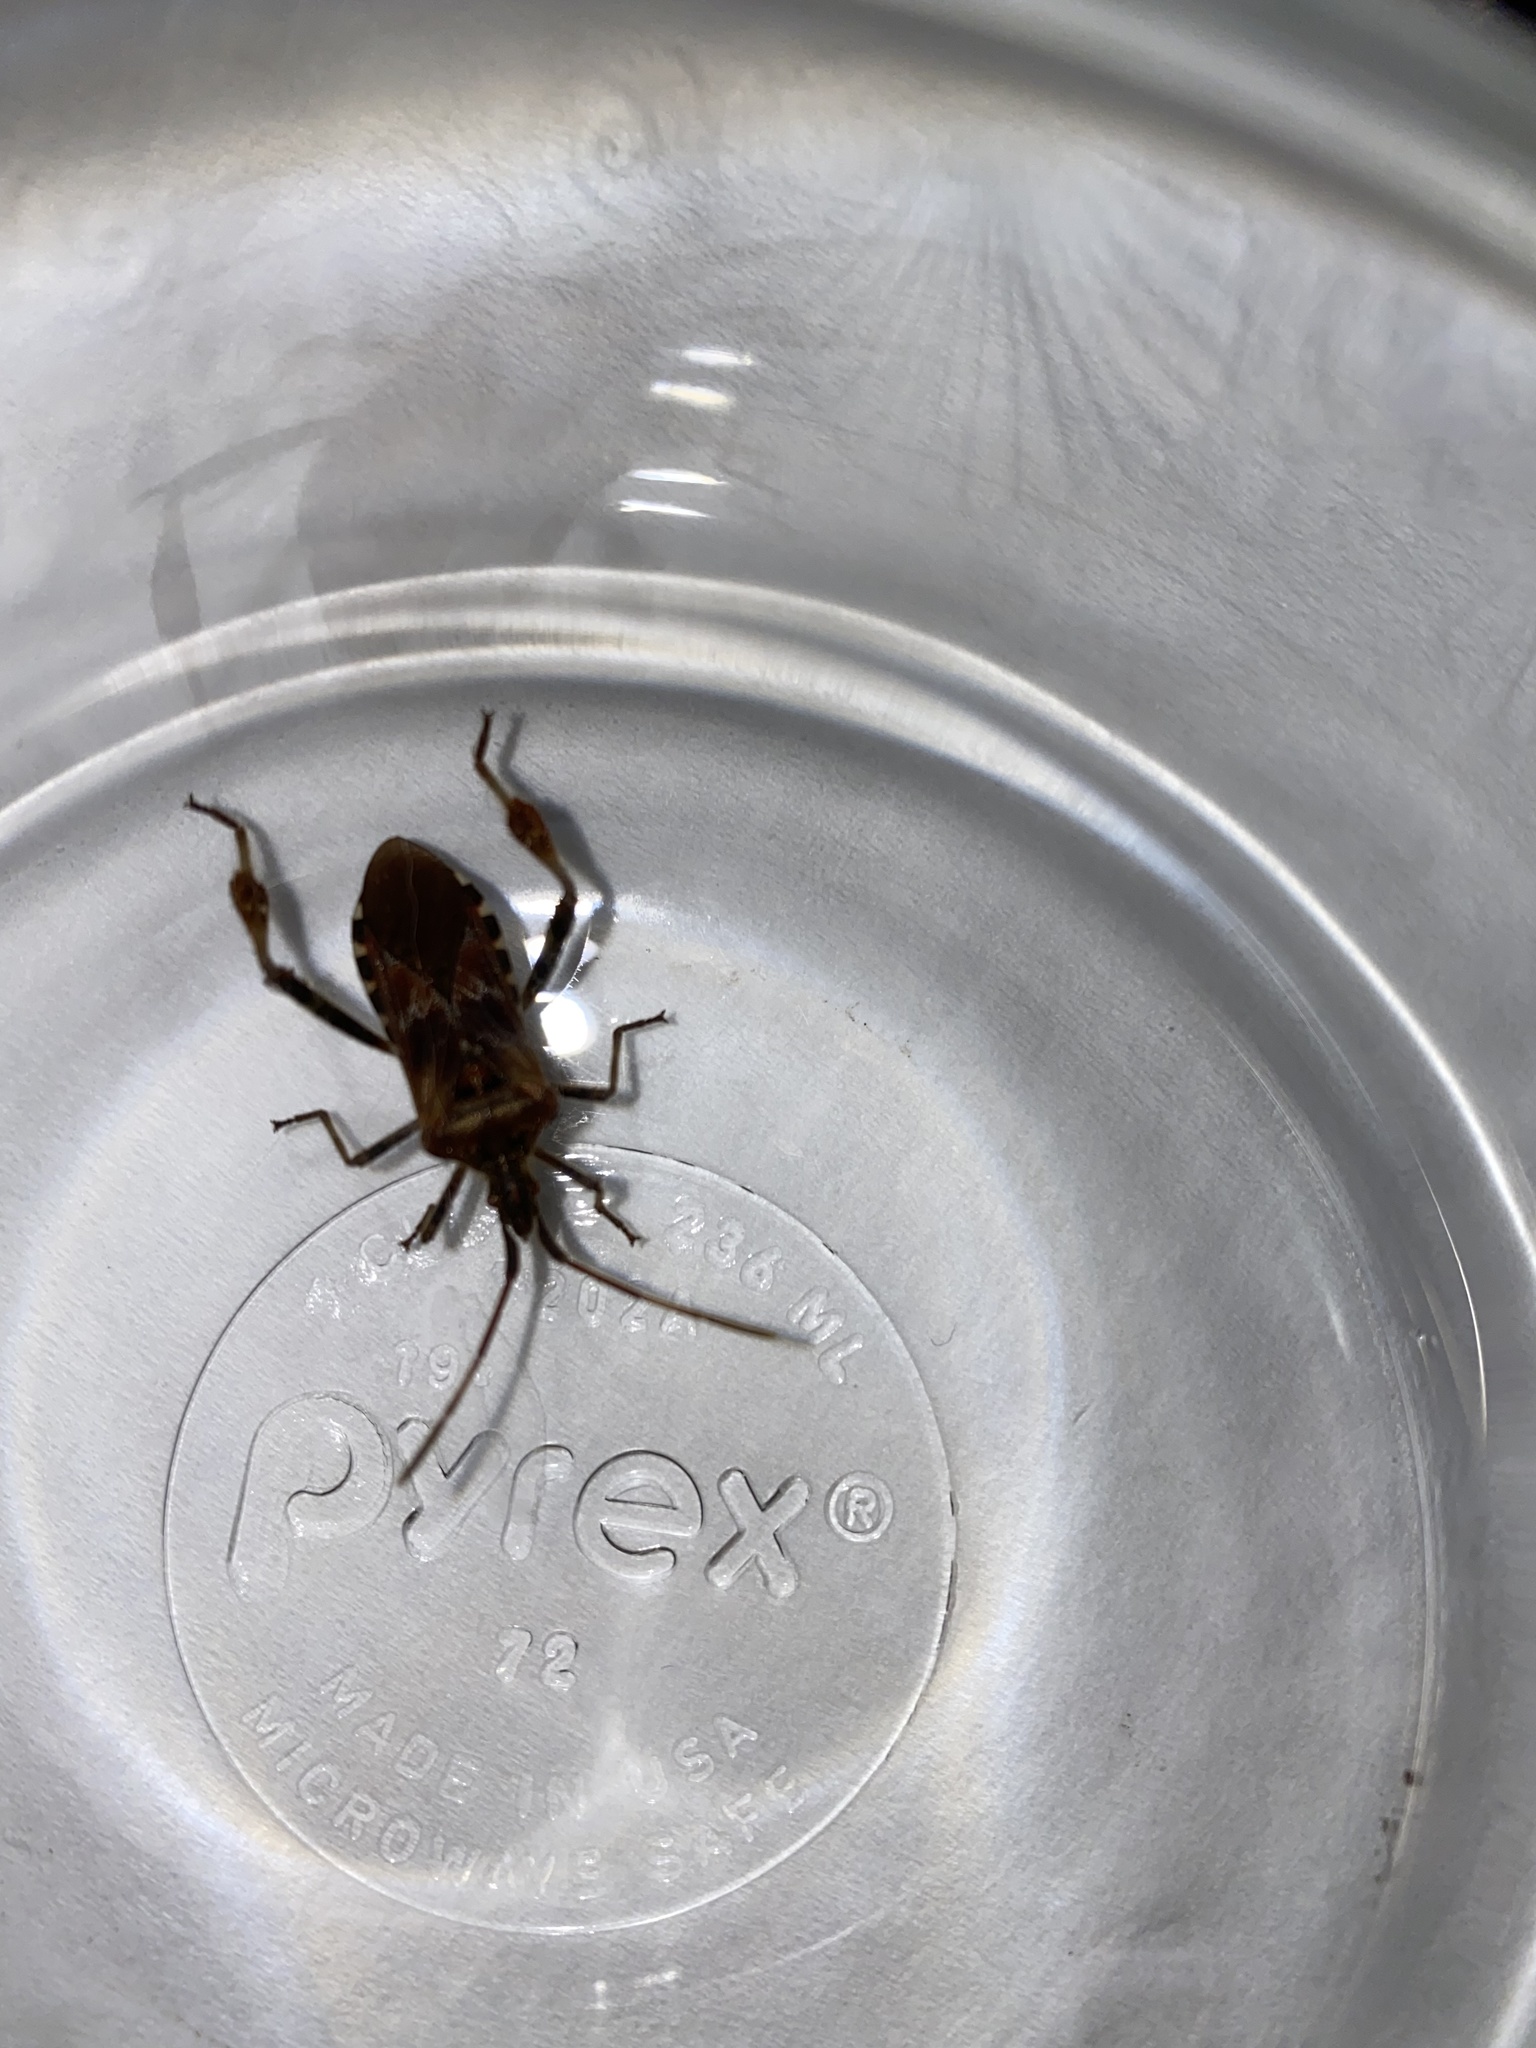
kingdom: Animalia
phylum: Arthropoda
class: Insecta
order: Hemiptera
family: Coreidae
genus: Leptoglossus
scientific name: Leptoglossus occidentalis
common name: Western conifer-seed bug
